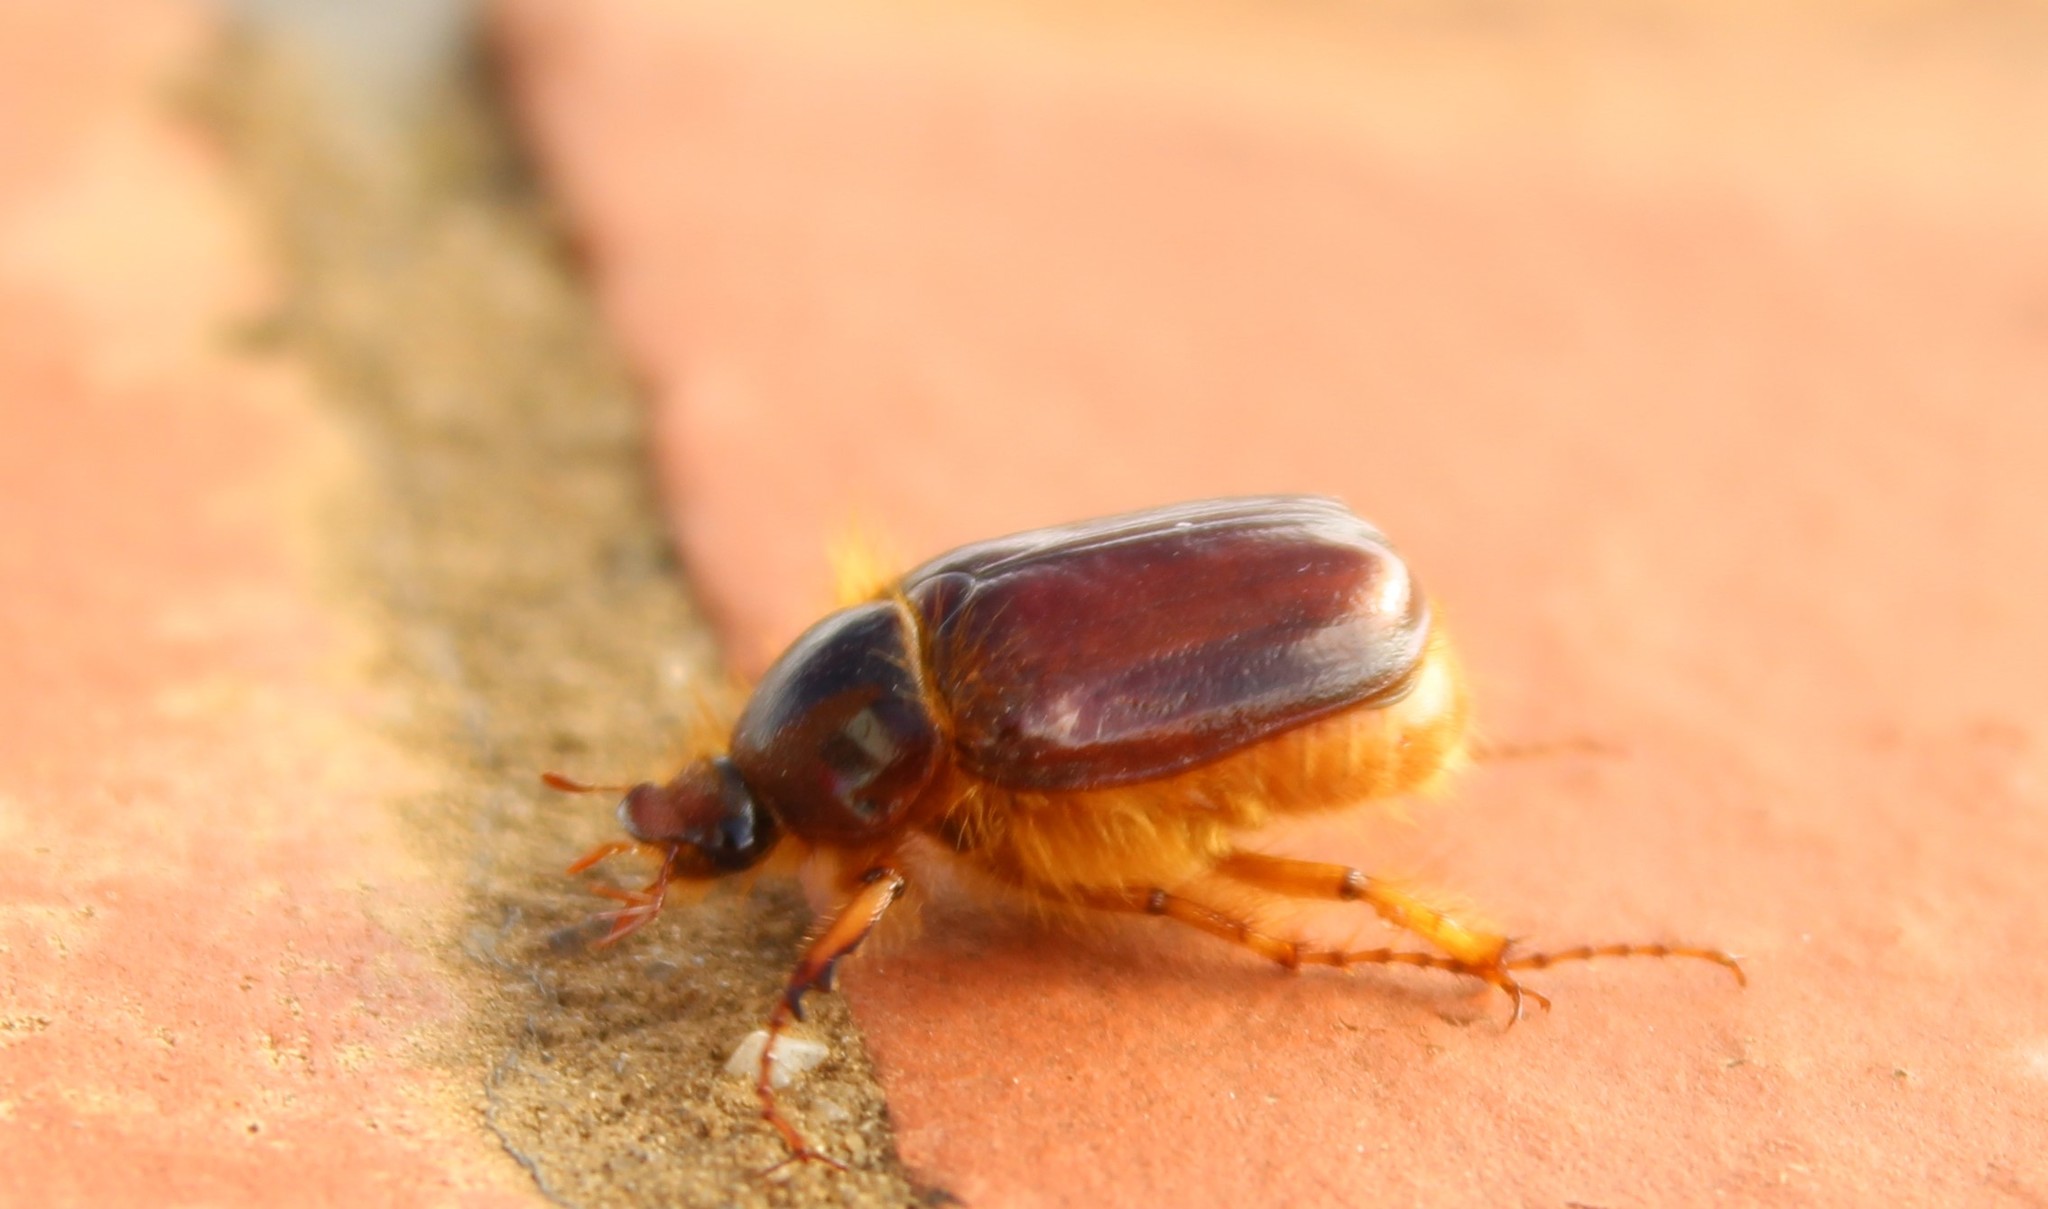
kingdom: Animalia
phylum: Arthropoda
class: Insecta
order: Coleoptera
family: Scarabaeidae
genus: Paulosawaya
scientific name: Paulosawaya ursina
